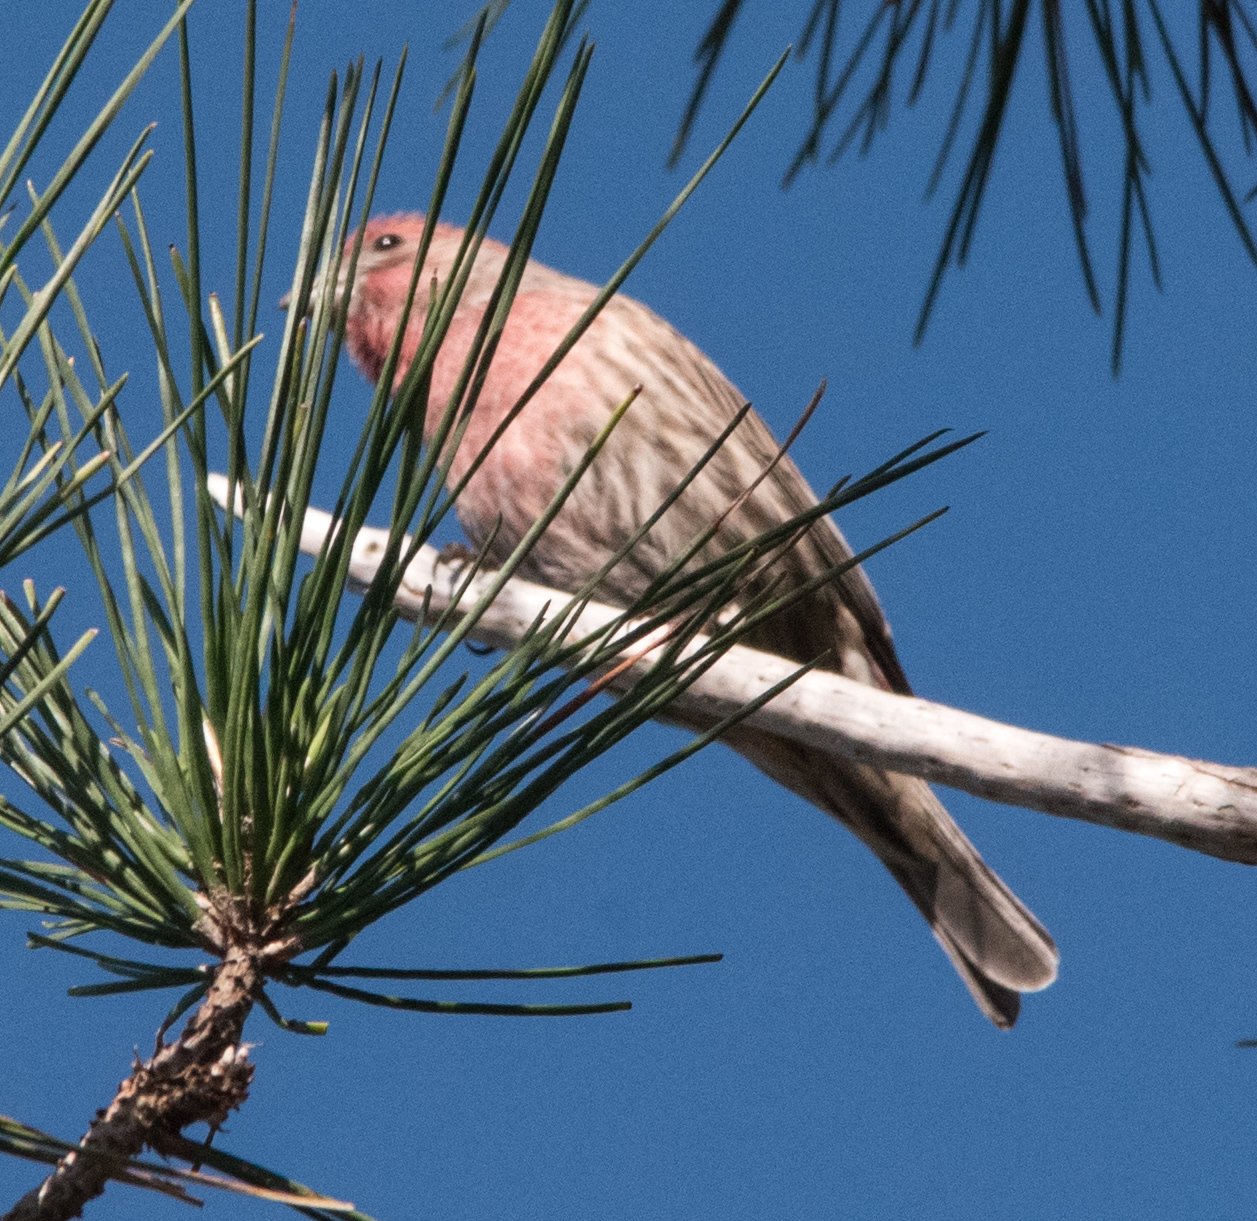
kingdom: Animalia
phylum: Chordata
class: Aves
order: Passeriformes
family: Fringillidae
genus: Haemorhous
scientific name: Haemorhous mexicanus
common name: House finch
